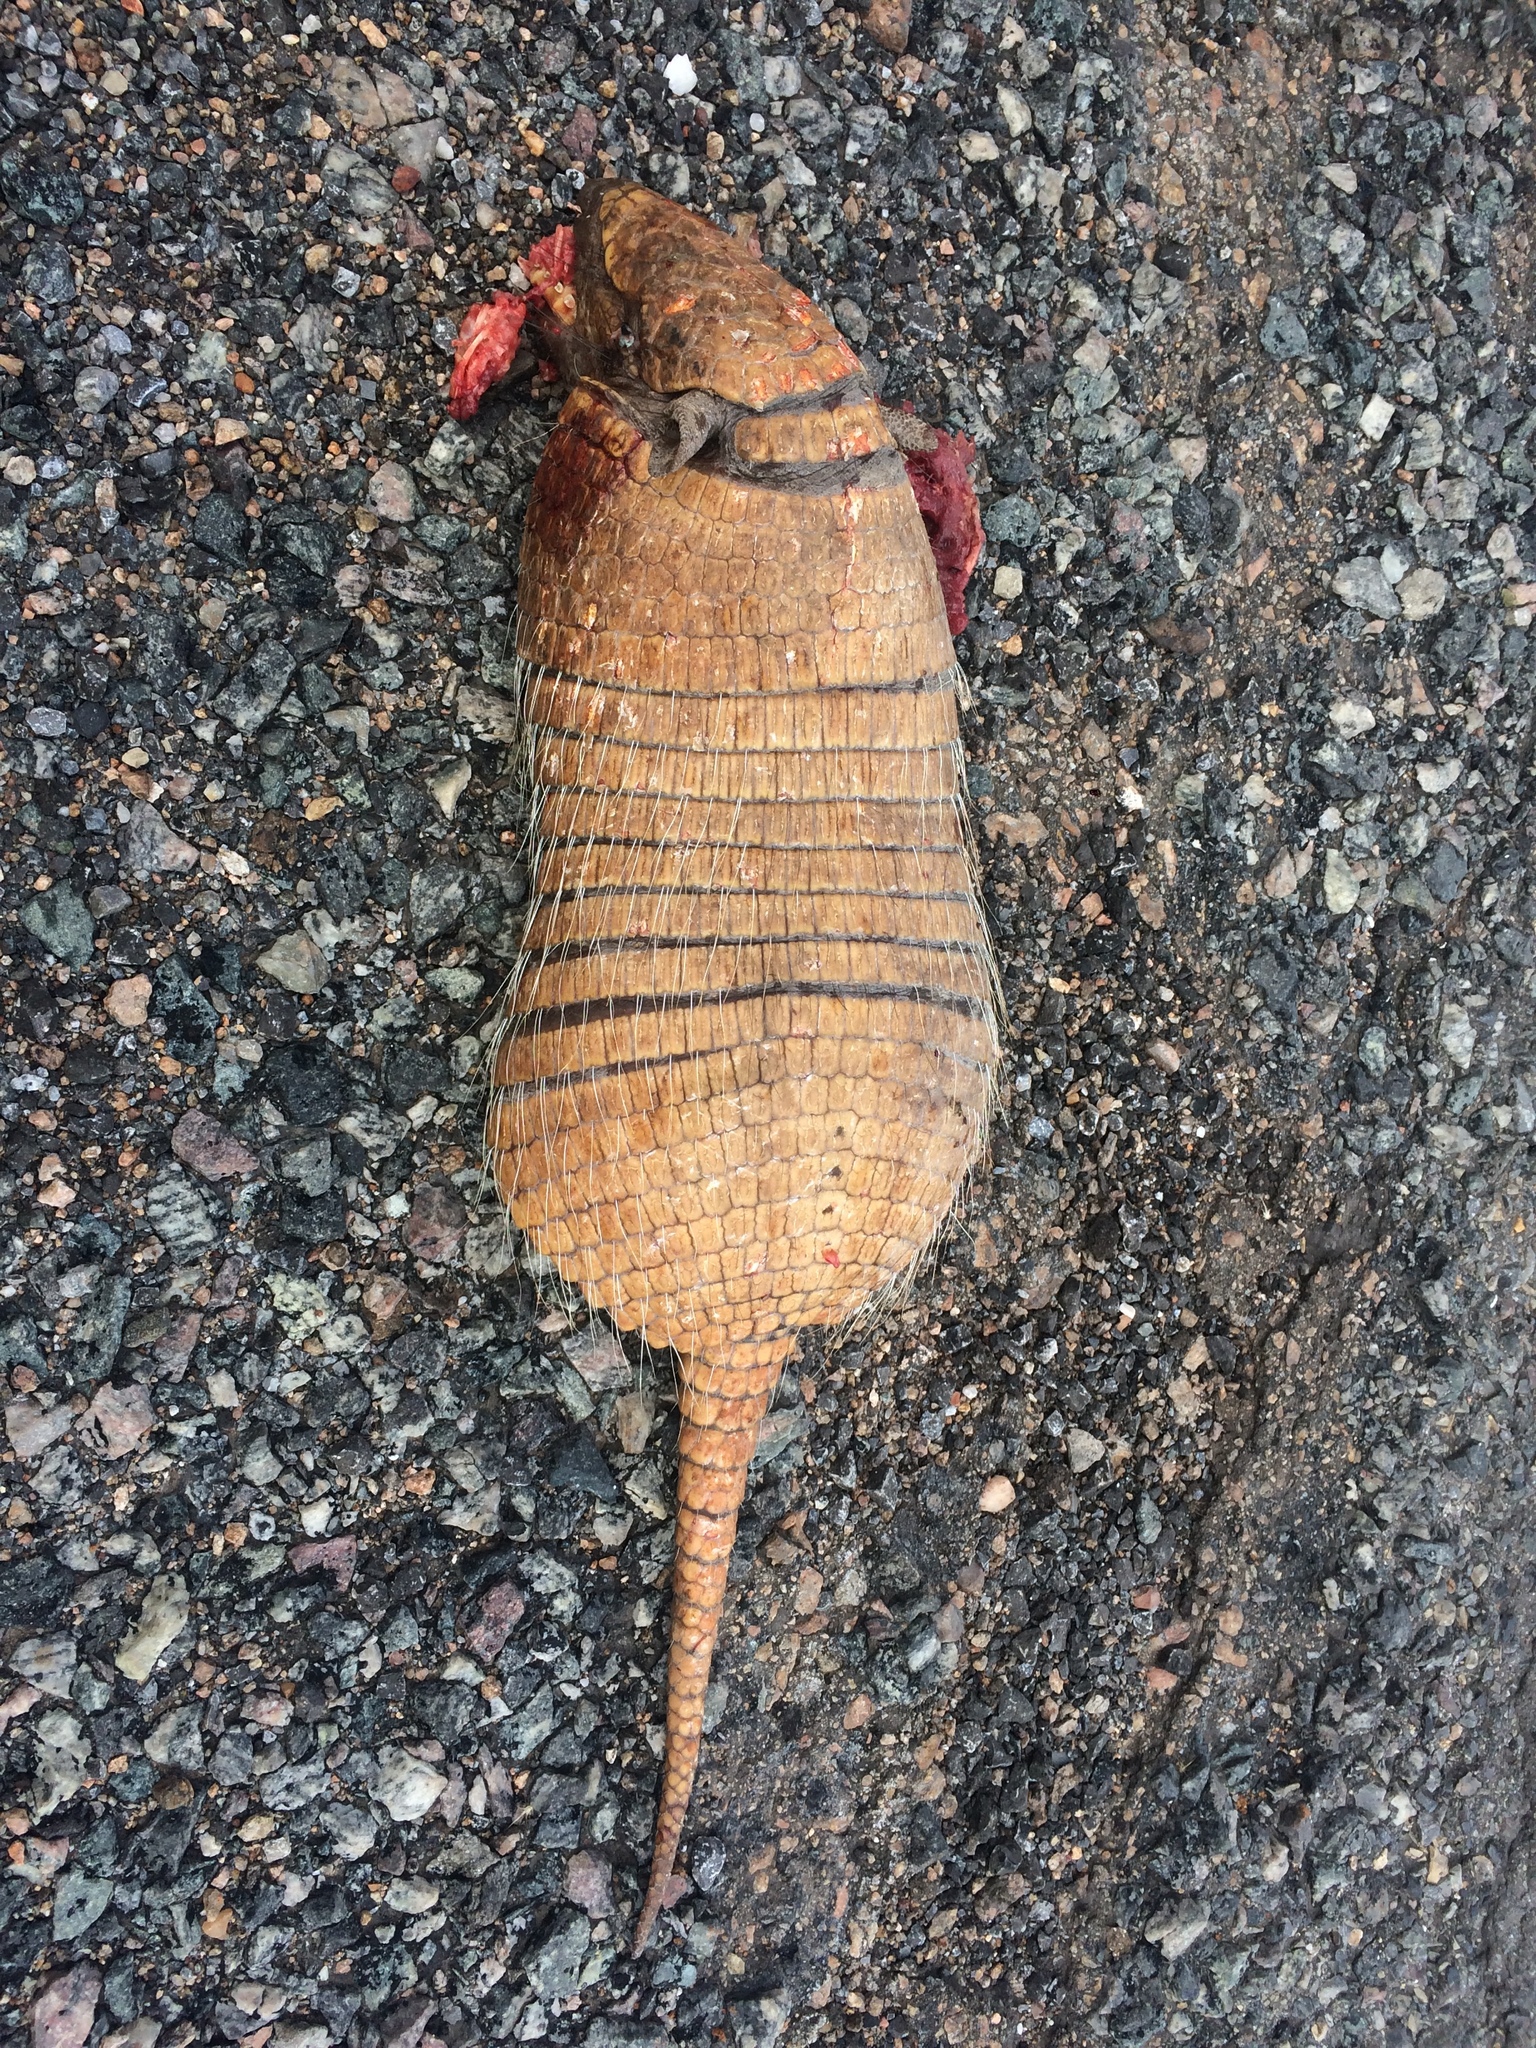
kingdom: Animalia
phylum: Chordata
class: Mammalia
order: Cingulata
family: Dasypodidae
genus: Euphractus
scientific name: Euphractus sexcinctus
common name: Six-banded armadillo
